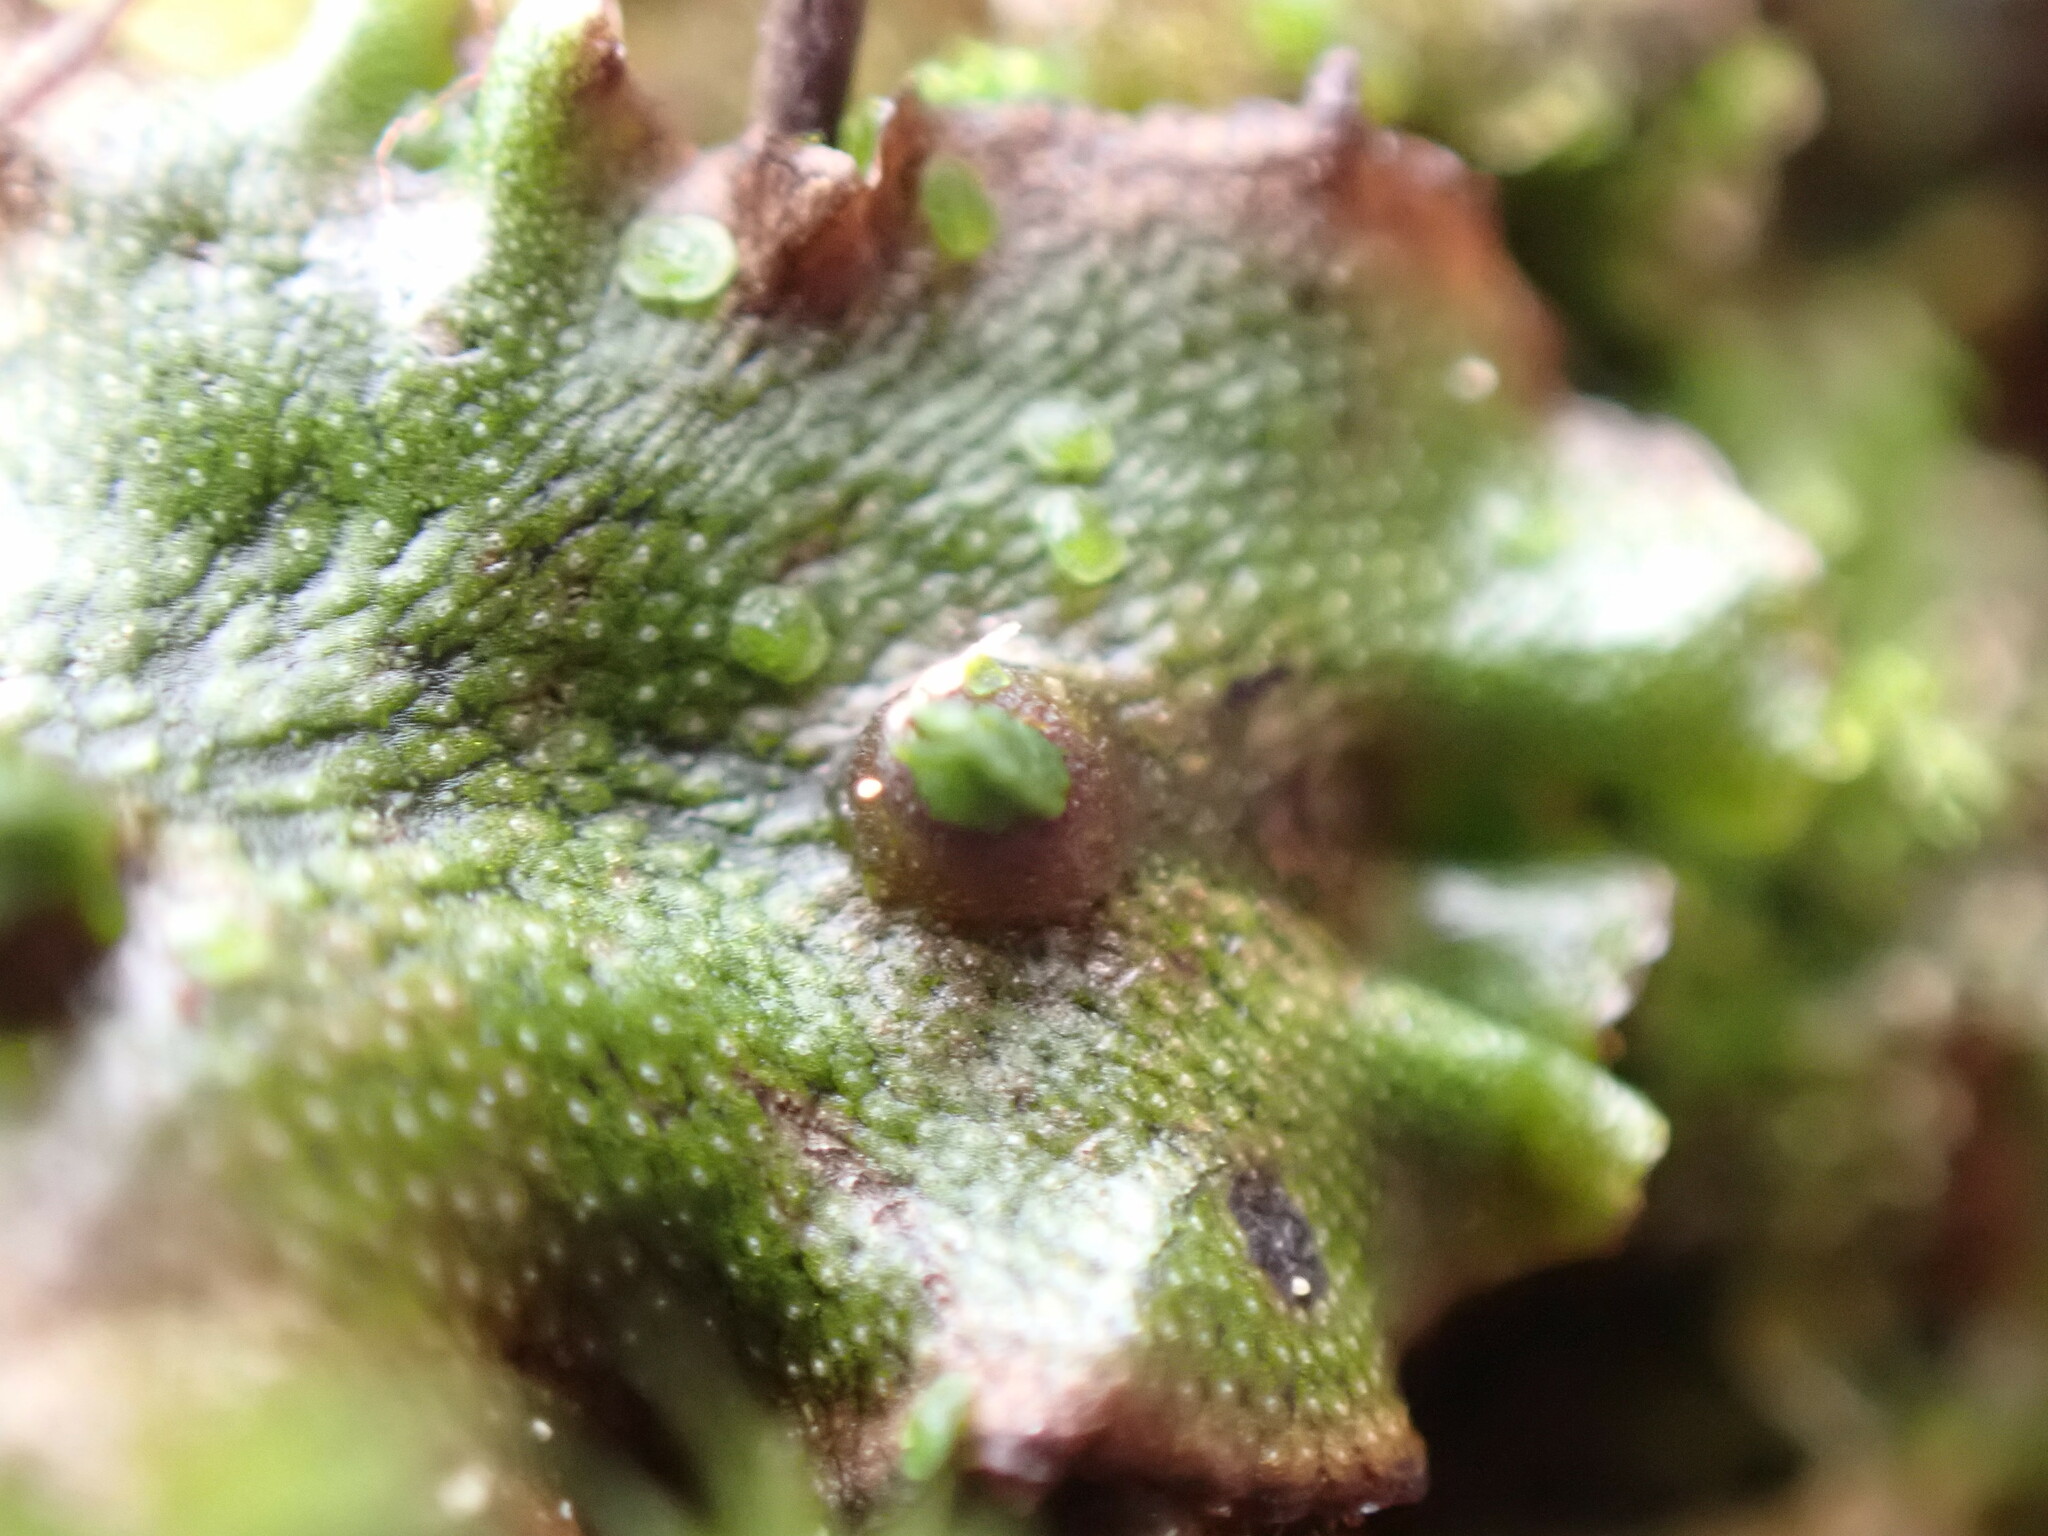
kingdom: Plantae
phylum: Marchantiophyta
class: Marchantiopsida
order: Marchantiales
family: Marchantiaceae
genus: Marchantia
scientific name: Marchantia polymorpha
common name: Common liverwort
